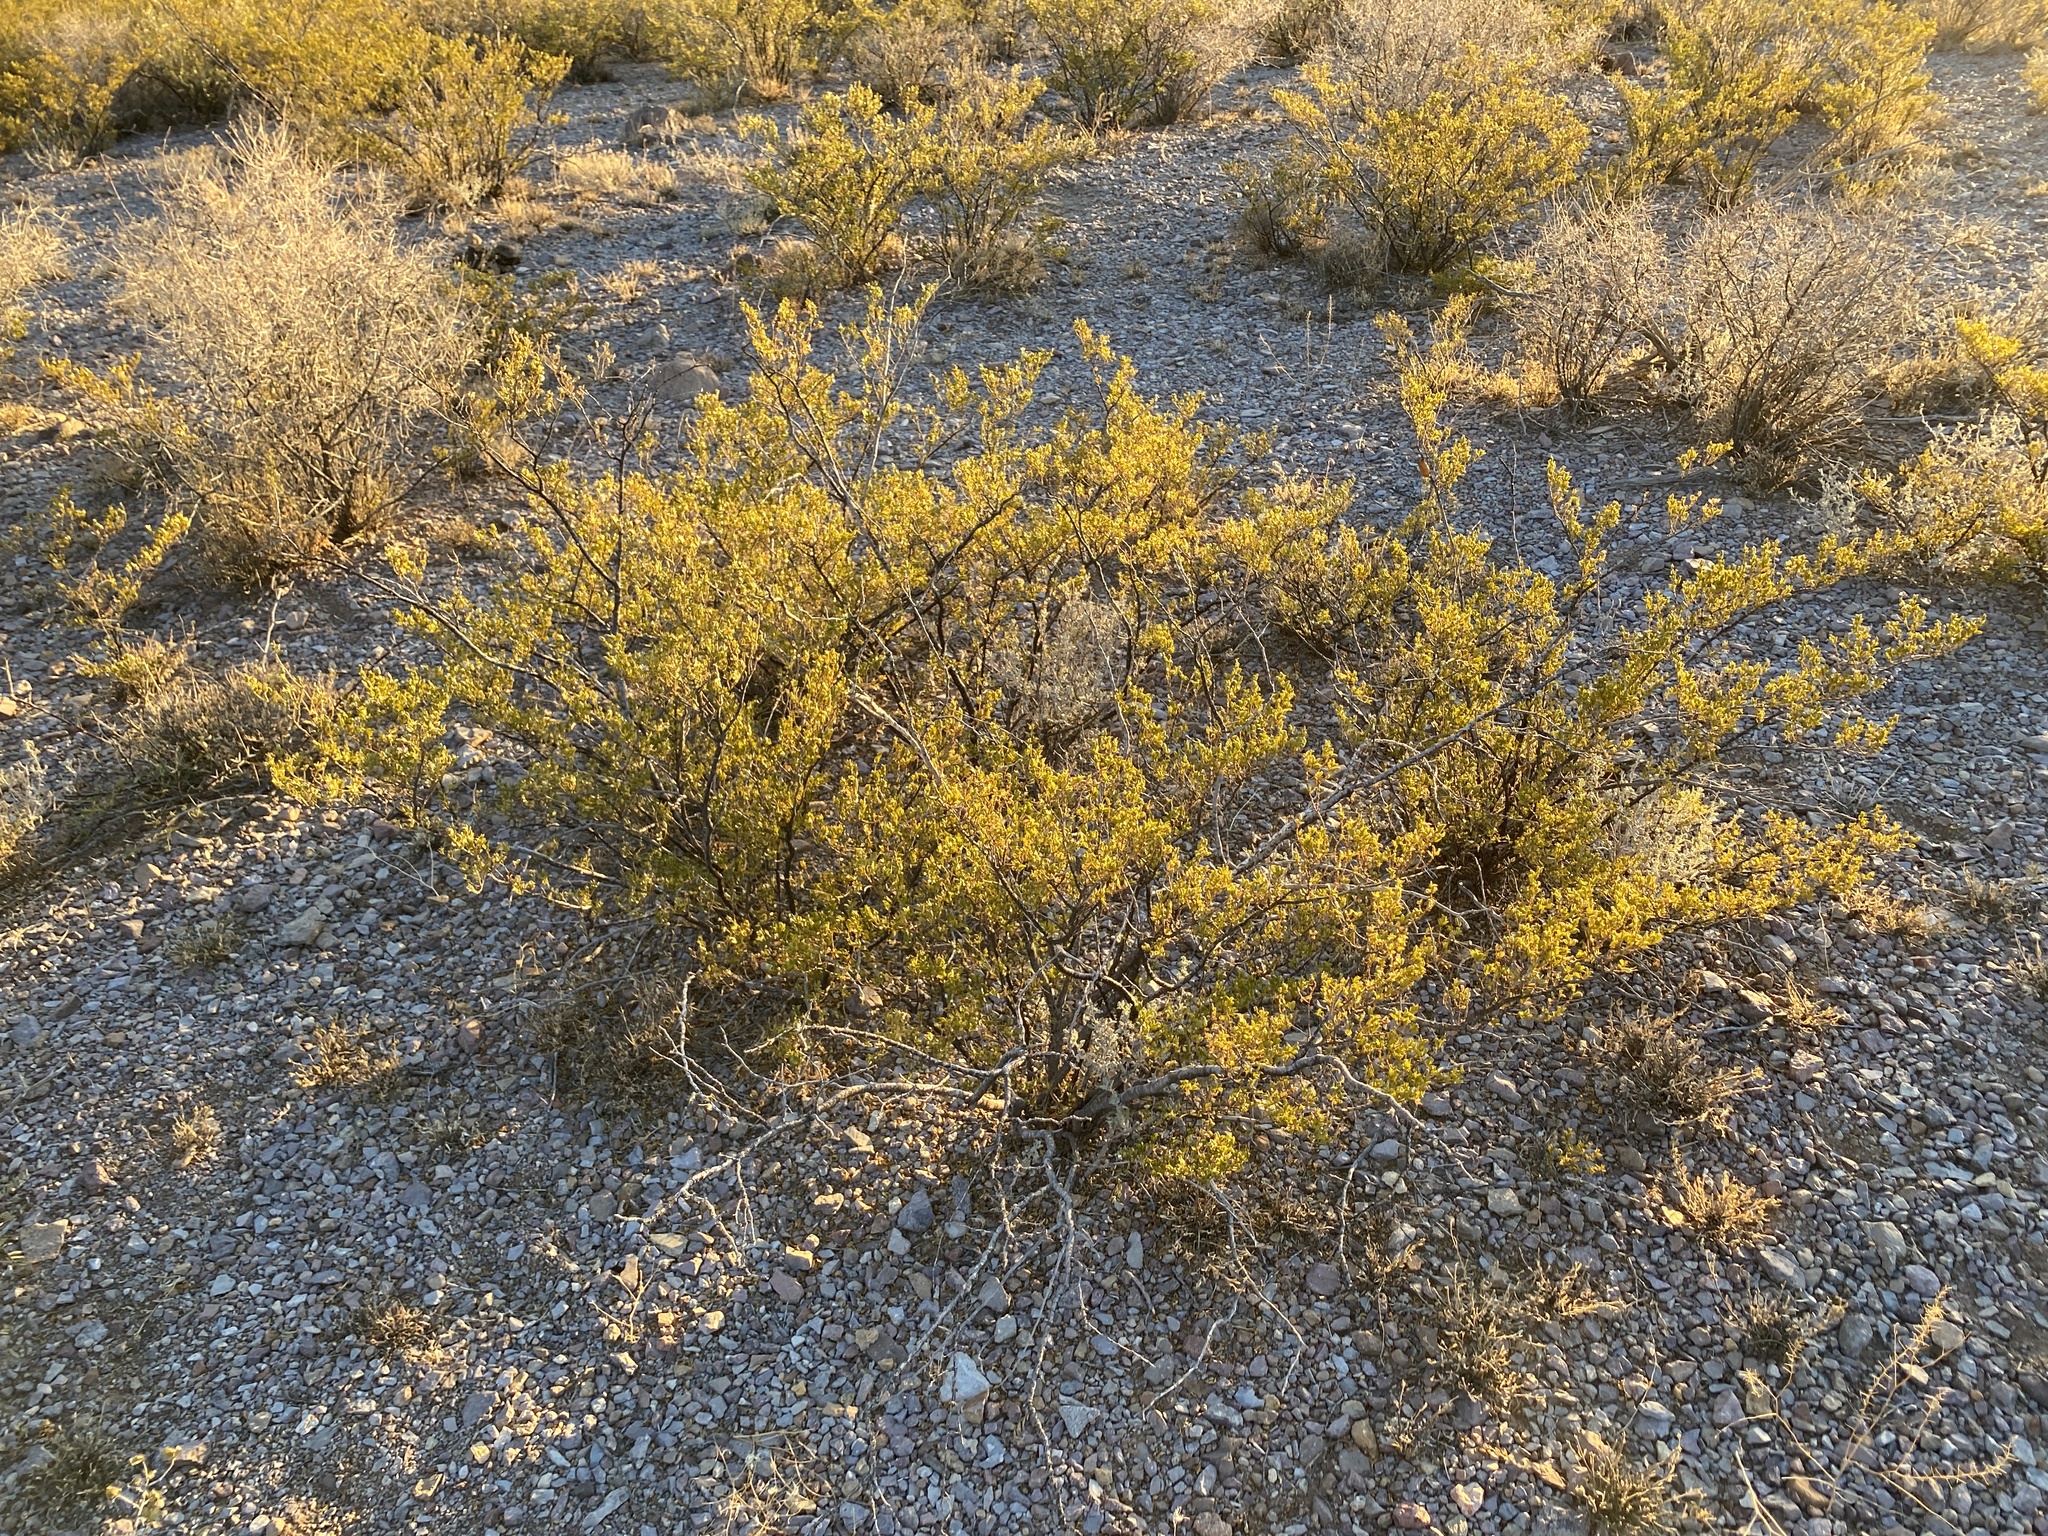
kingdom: Plantae
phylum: Tracheophyta
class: Magnoliopsida
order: Zygophyllales
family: Zygophyllaceae
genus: Larrea
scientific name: Larrea tridentata
